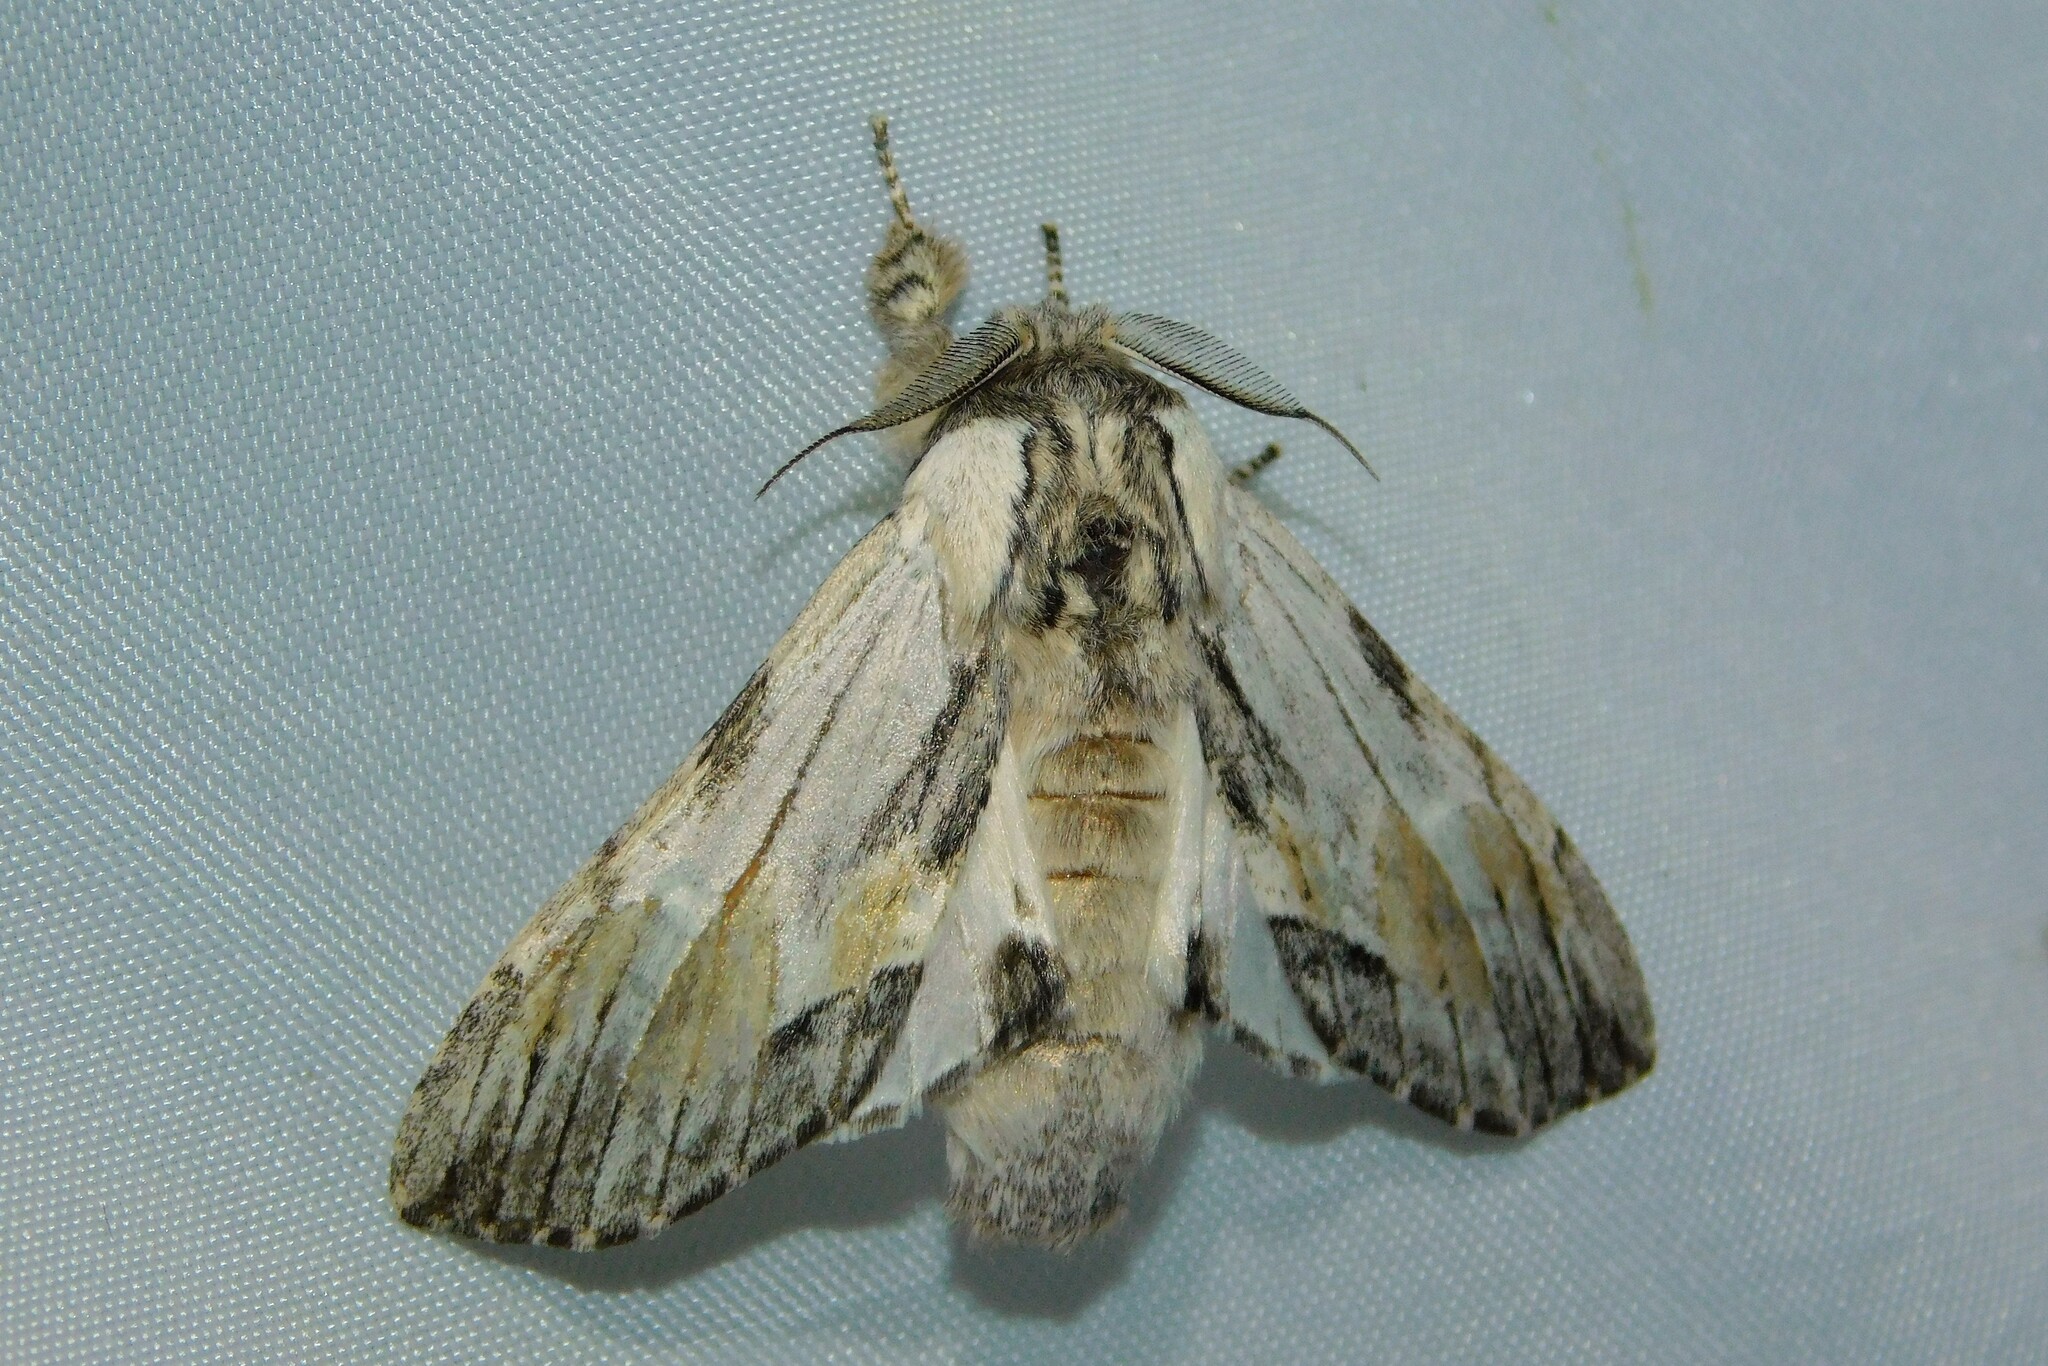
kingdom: Animalia
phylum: Arthropoda
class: Insecta
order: Lepidoptera
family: Notodontidae
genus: Harpyia
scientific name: Harpyia milhauseri
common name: Tawny prominent
